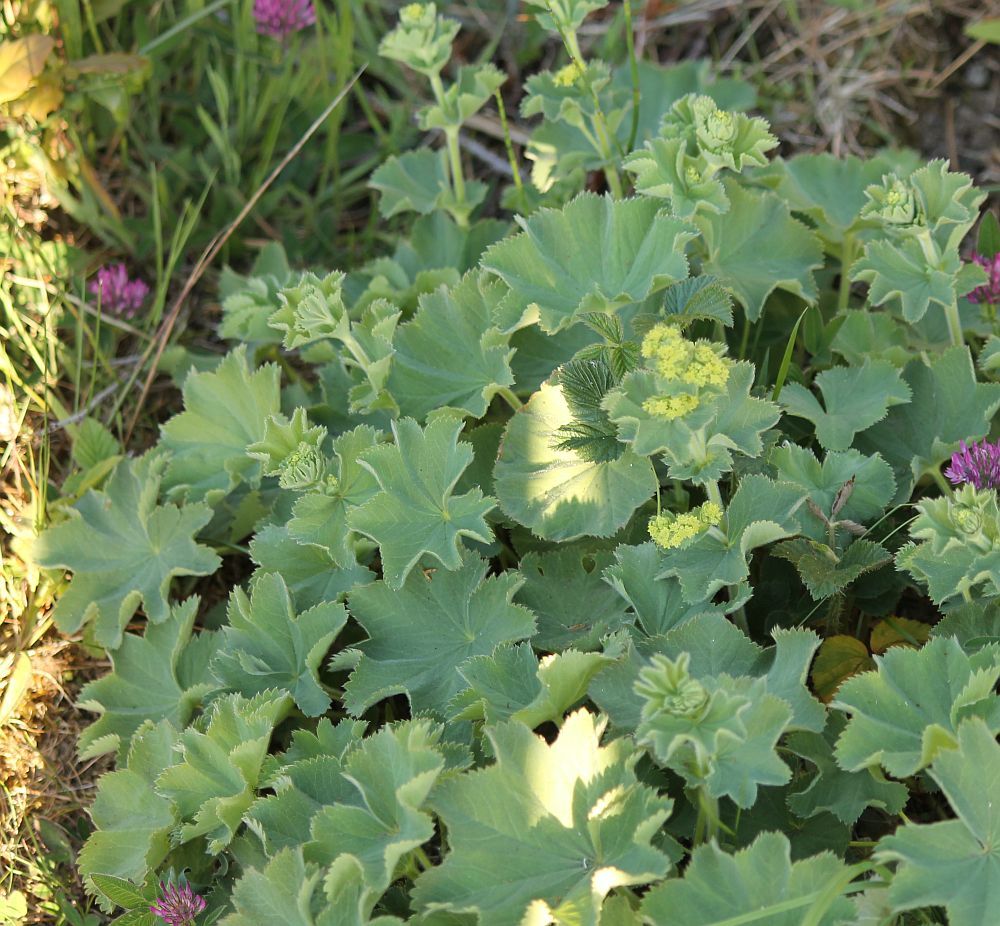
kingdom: Plantae
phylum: Tracheophyta
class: Magnoliopsida
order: Rosales
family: Rosaceae
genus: Alchemilla
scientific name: Alchemilla mollis
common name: Lady's-mantle
